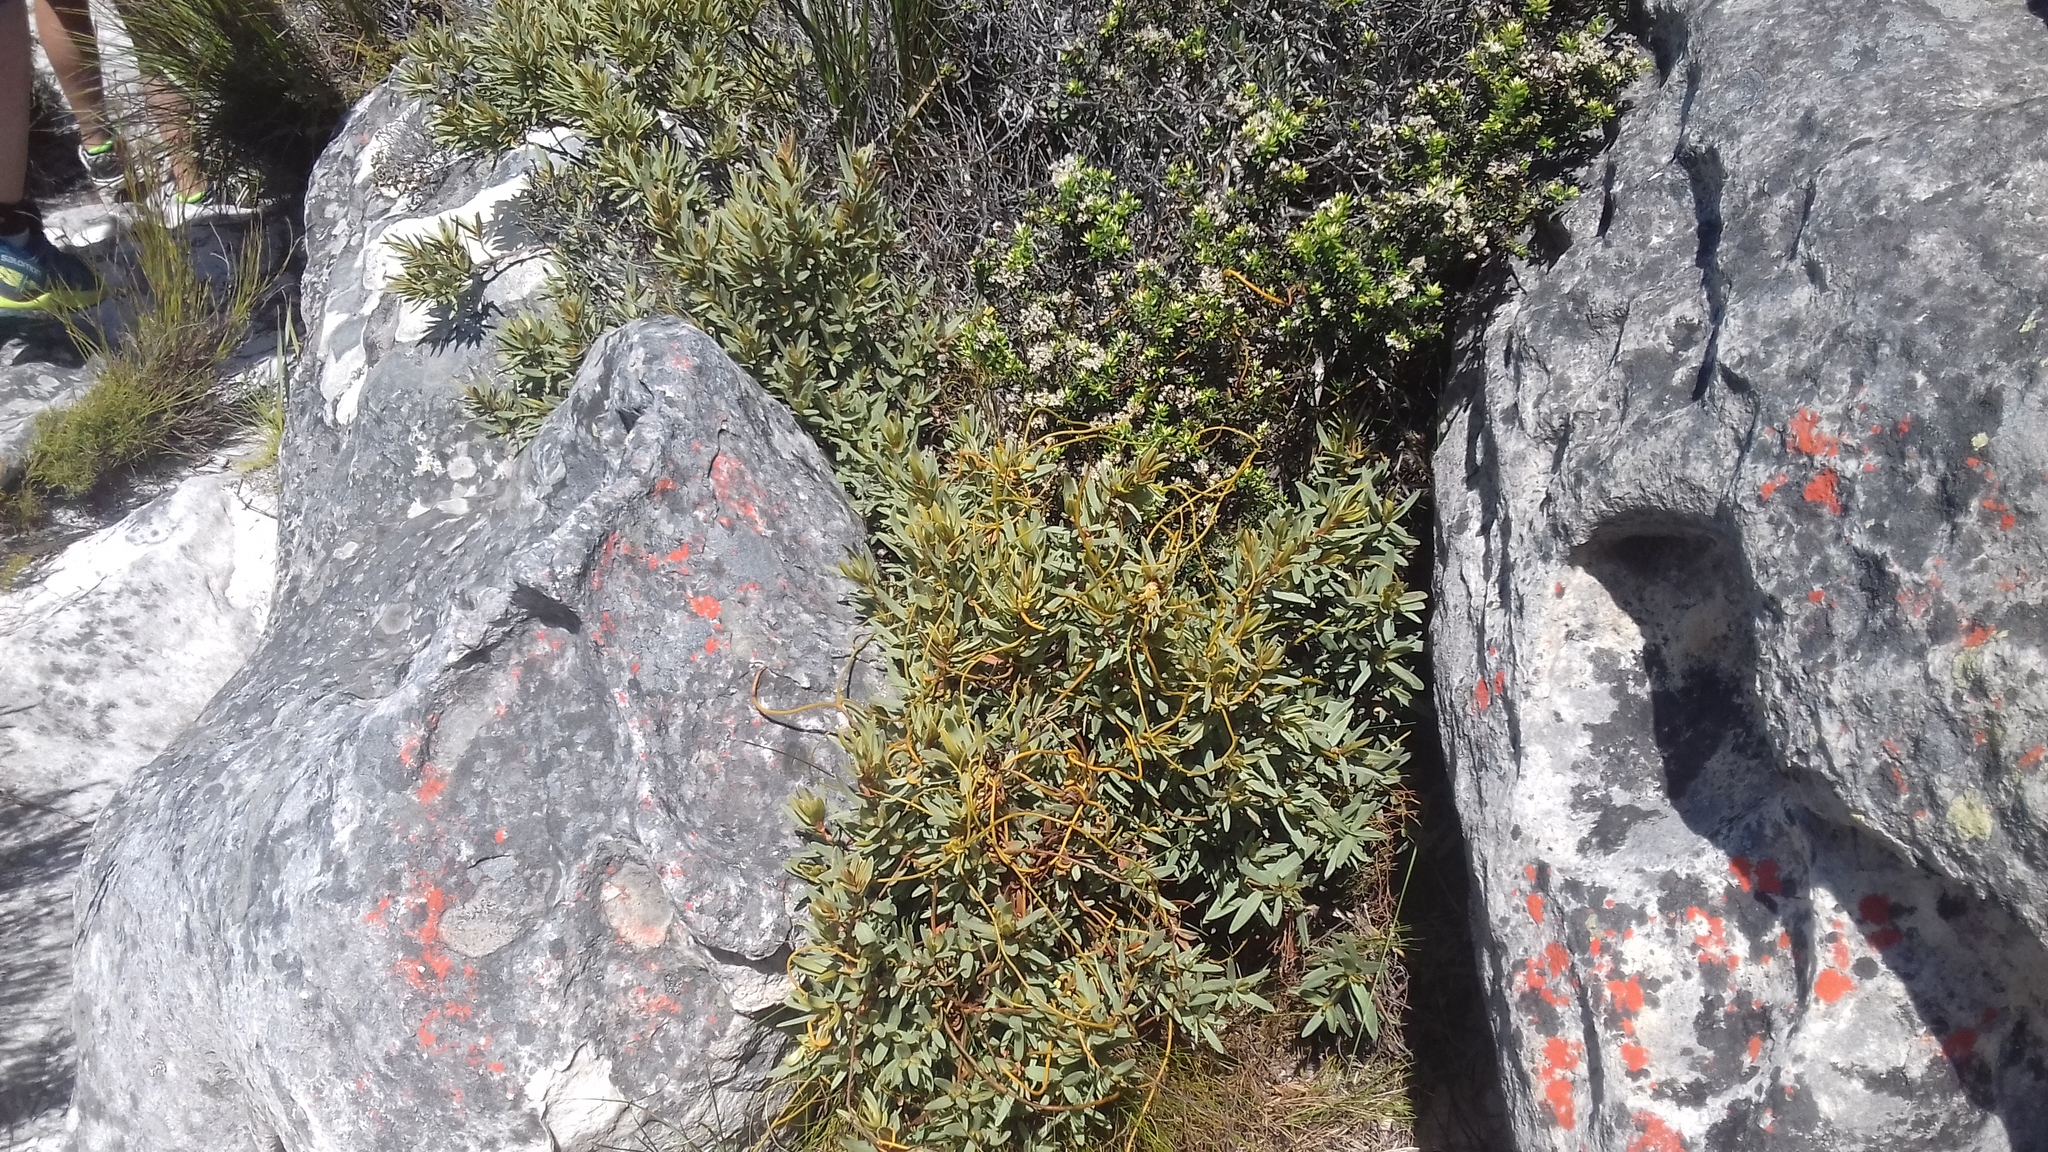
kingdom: Plantae
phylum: Tracheophyta
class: Magnoliopsida
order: Cornales
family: Grubbiaceae
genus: Grubbia
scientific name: Grubbia tomentosa
